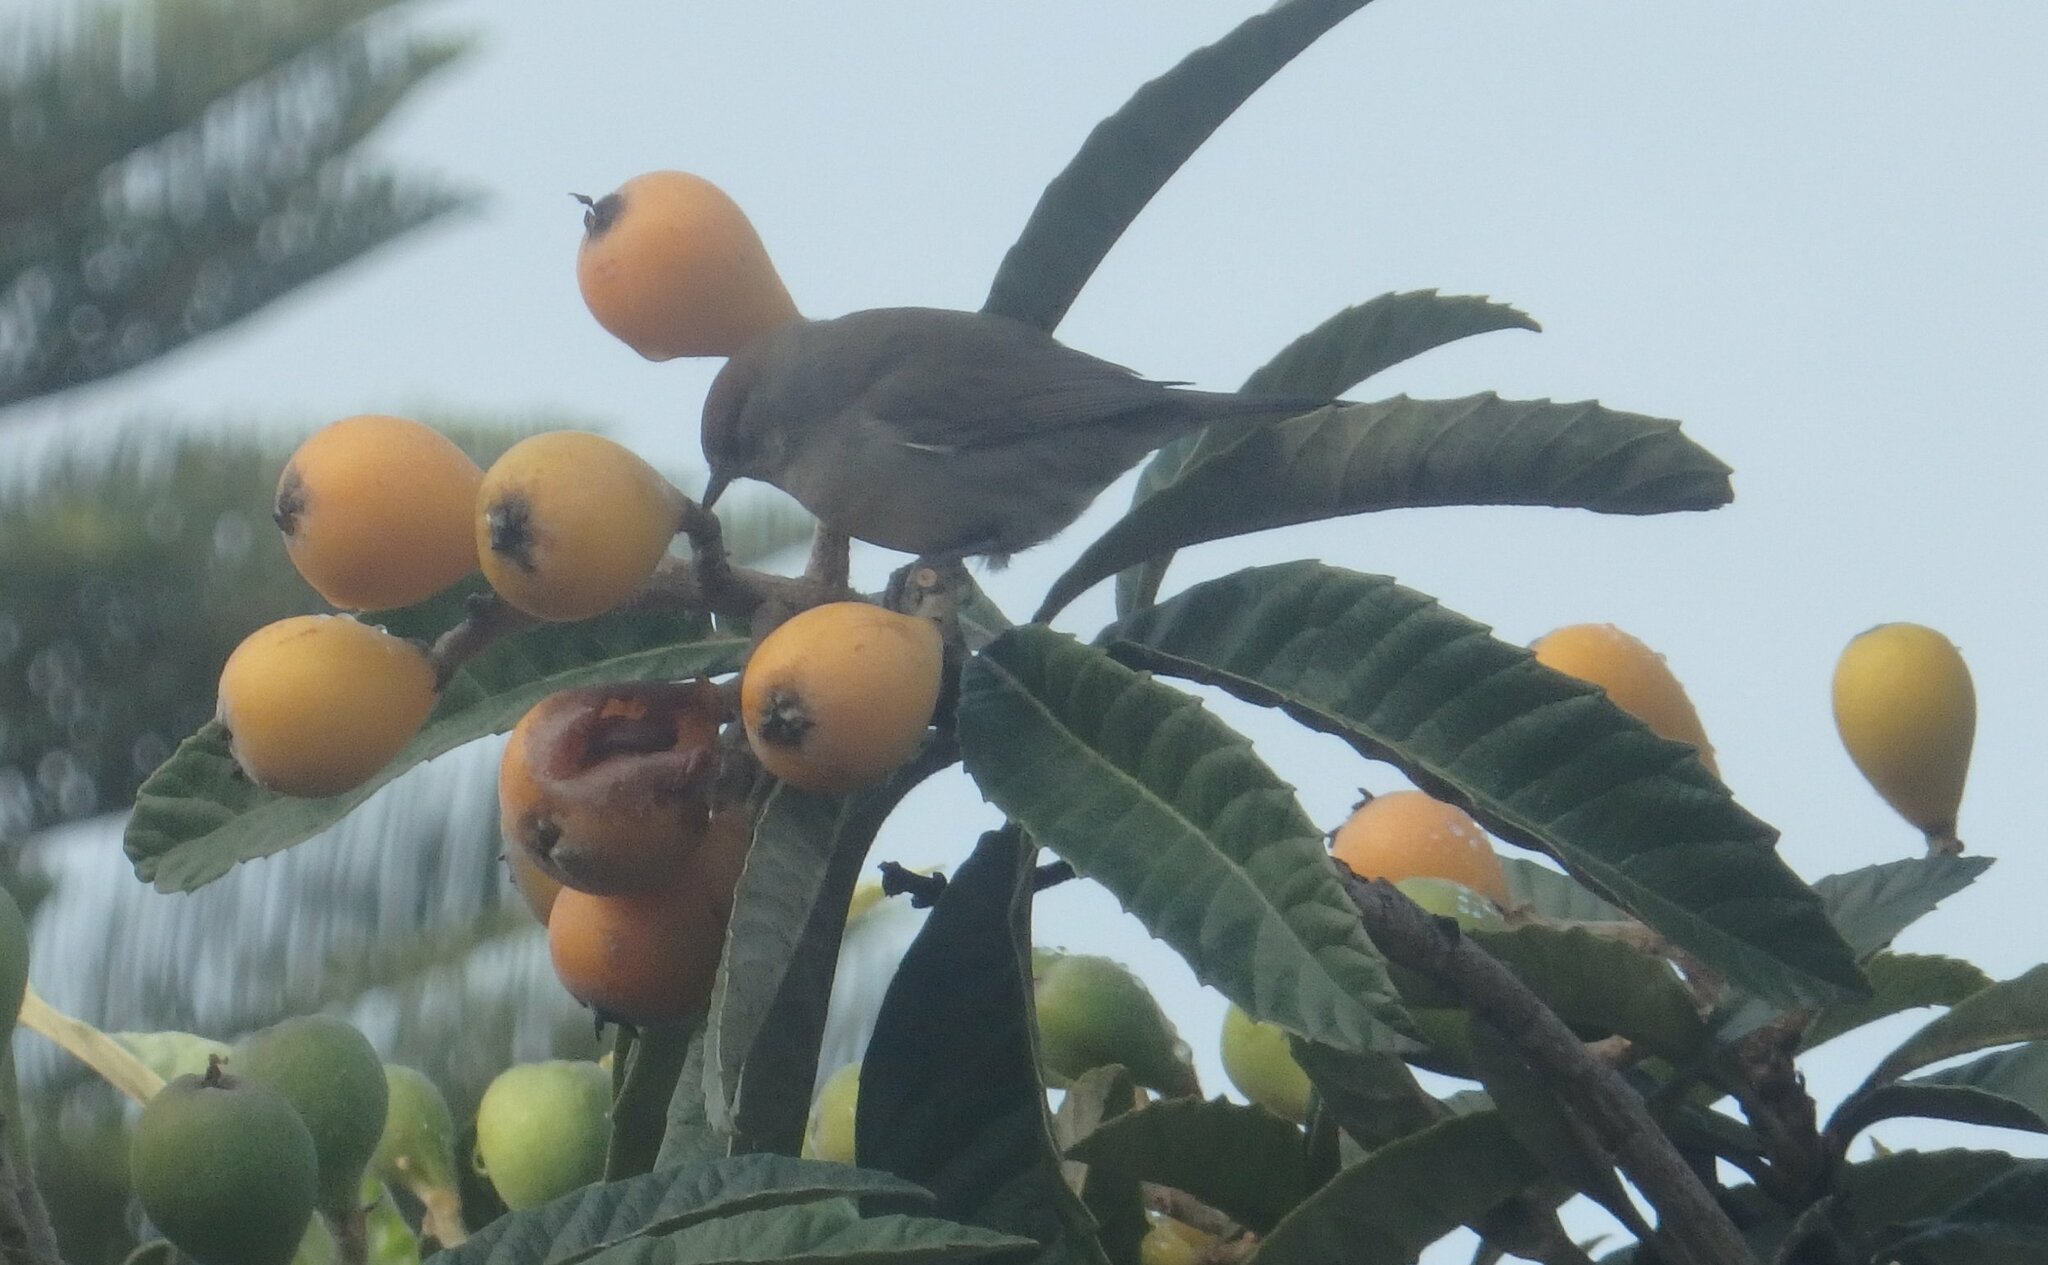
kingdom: Animalia
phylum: Chordata
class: Aves
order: Passeriformes
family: Sylviidae
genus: Sylvia
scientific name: Sylvia atricapilla
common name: Eurasian blackcap
